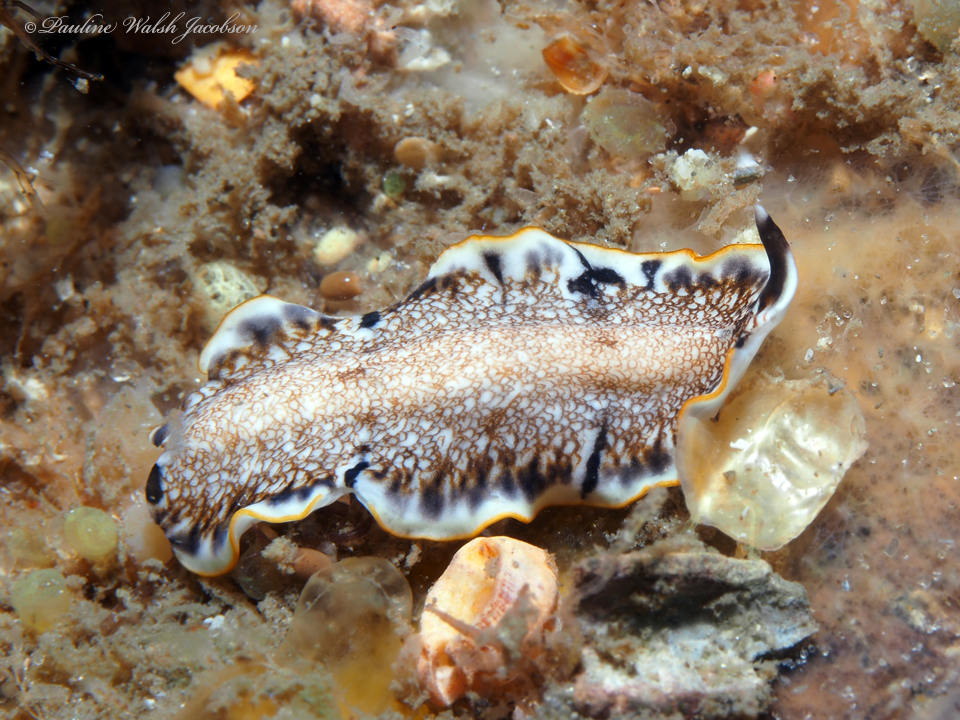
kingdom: Animalia
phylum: Platyhelminthes
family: Euryleptidae
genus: Prostheceraeus
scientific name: Prostheceraeus floridanus
